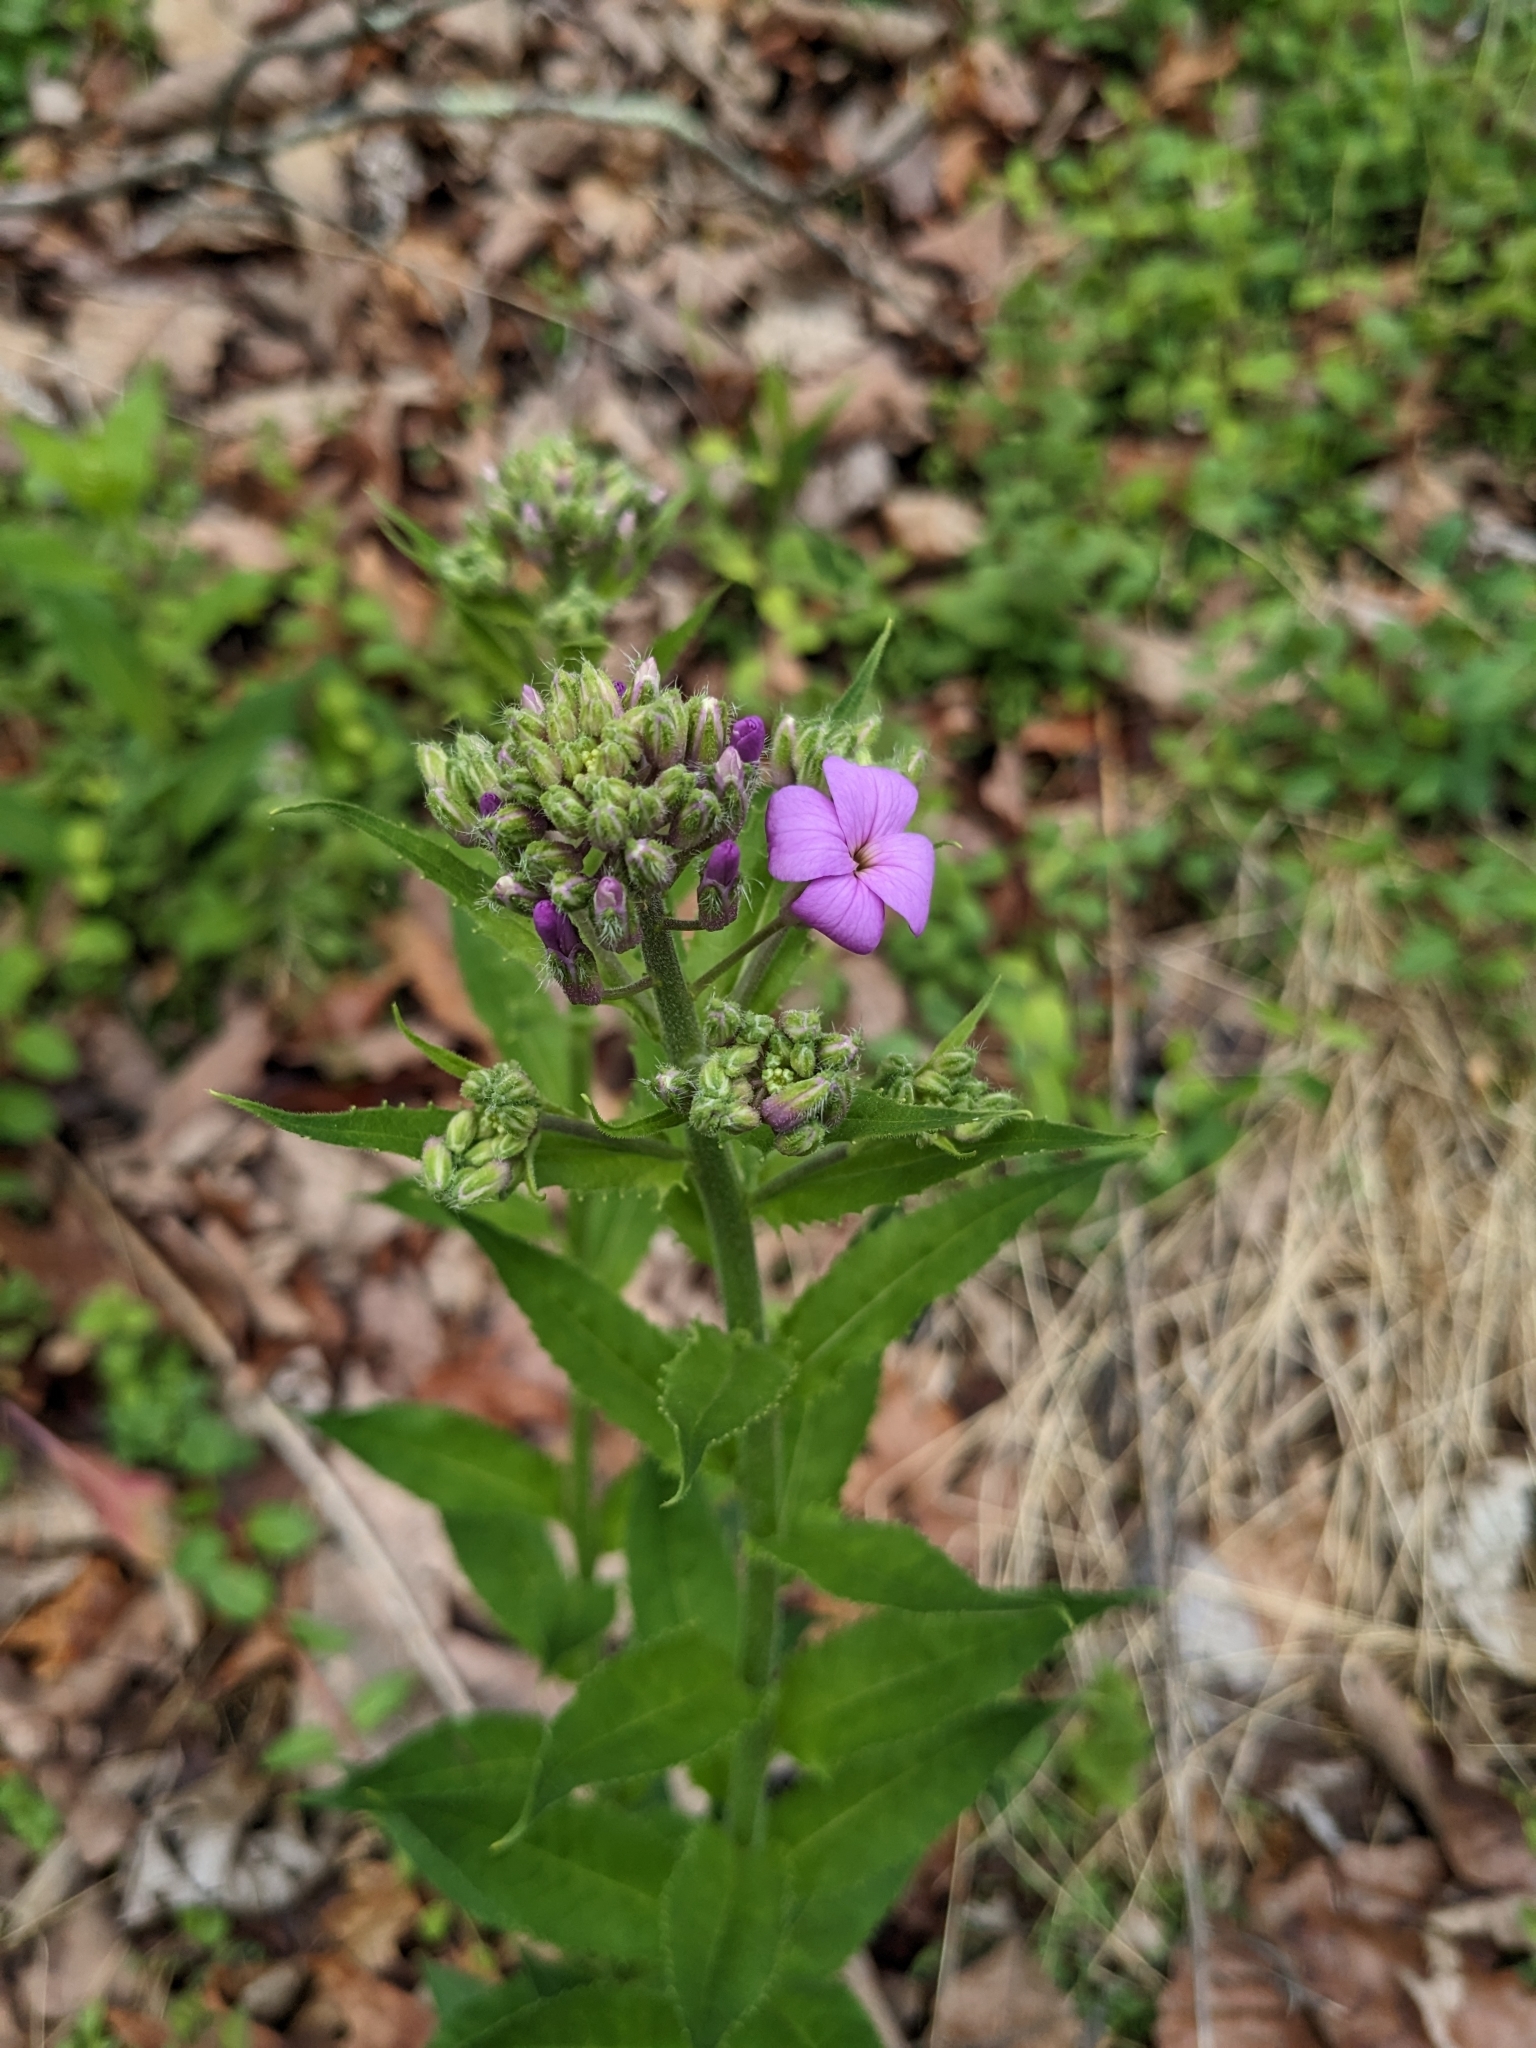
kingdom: Plantae
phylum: Tracheophyta
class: Magnoliopsida
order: Brassicales
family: Brassicaceae
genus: Hesperis
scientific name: Hesperis matronalis
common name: Dame's-violet
